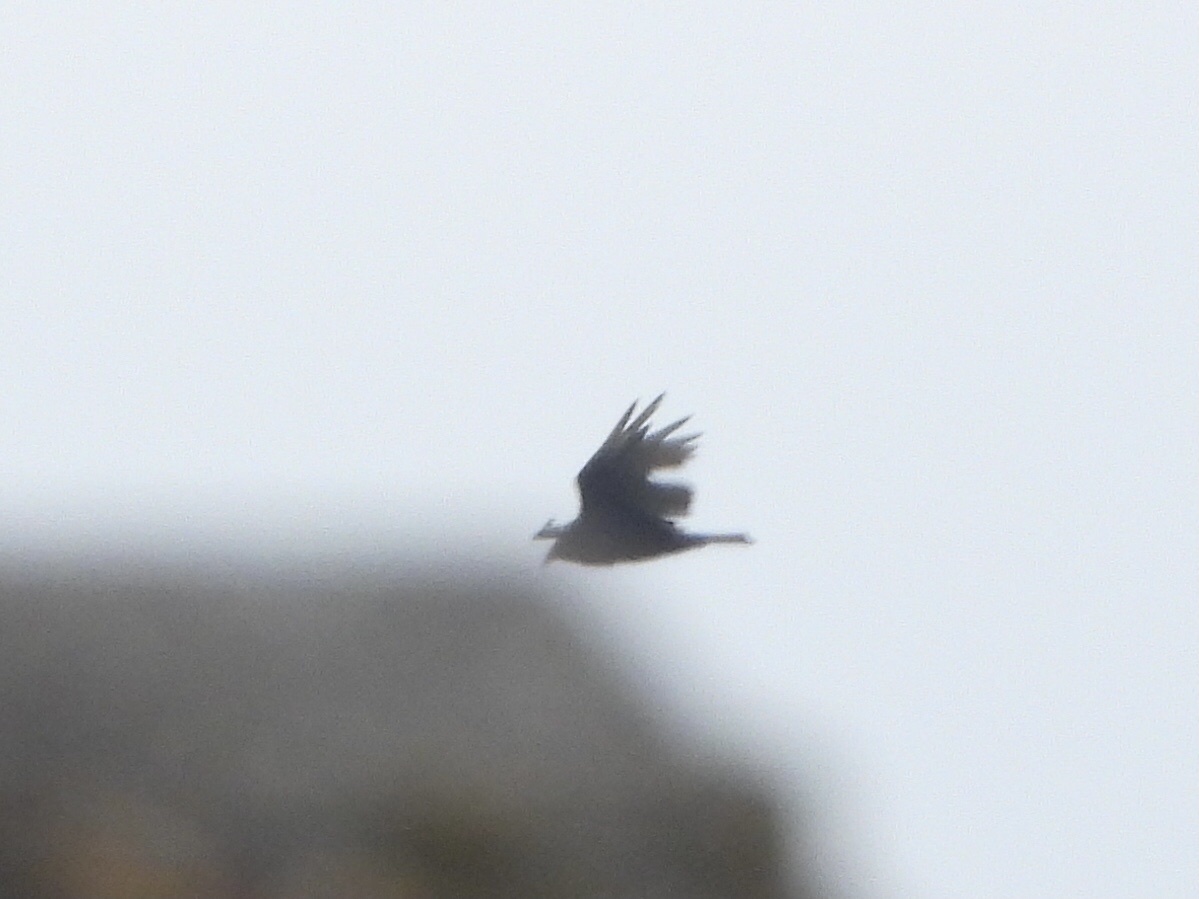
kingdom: Animalia
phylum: Chordata
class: Aves
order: Accipitriformes
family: Cathartidae
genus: Cathartes
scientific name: Cathartes aura
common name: Turkey vulture
